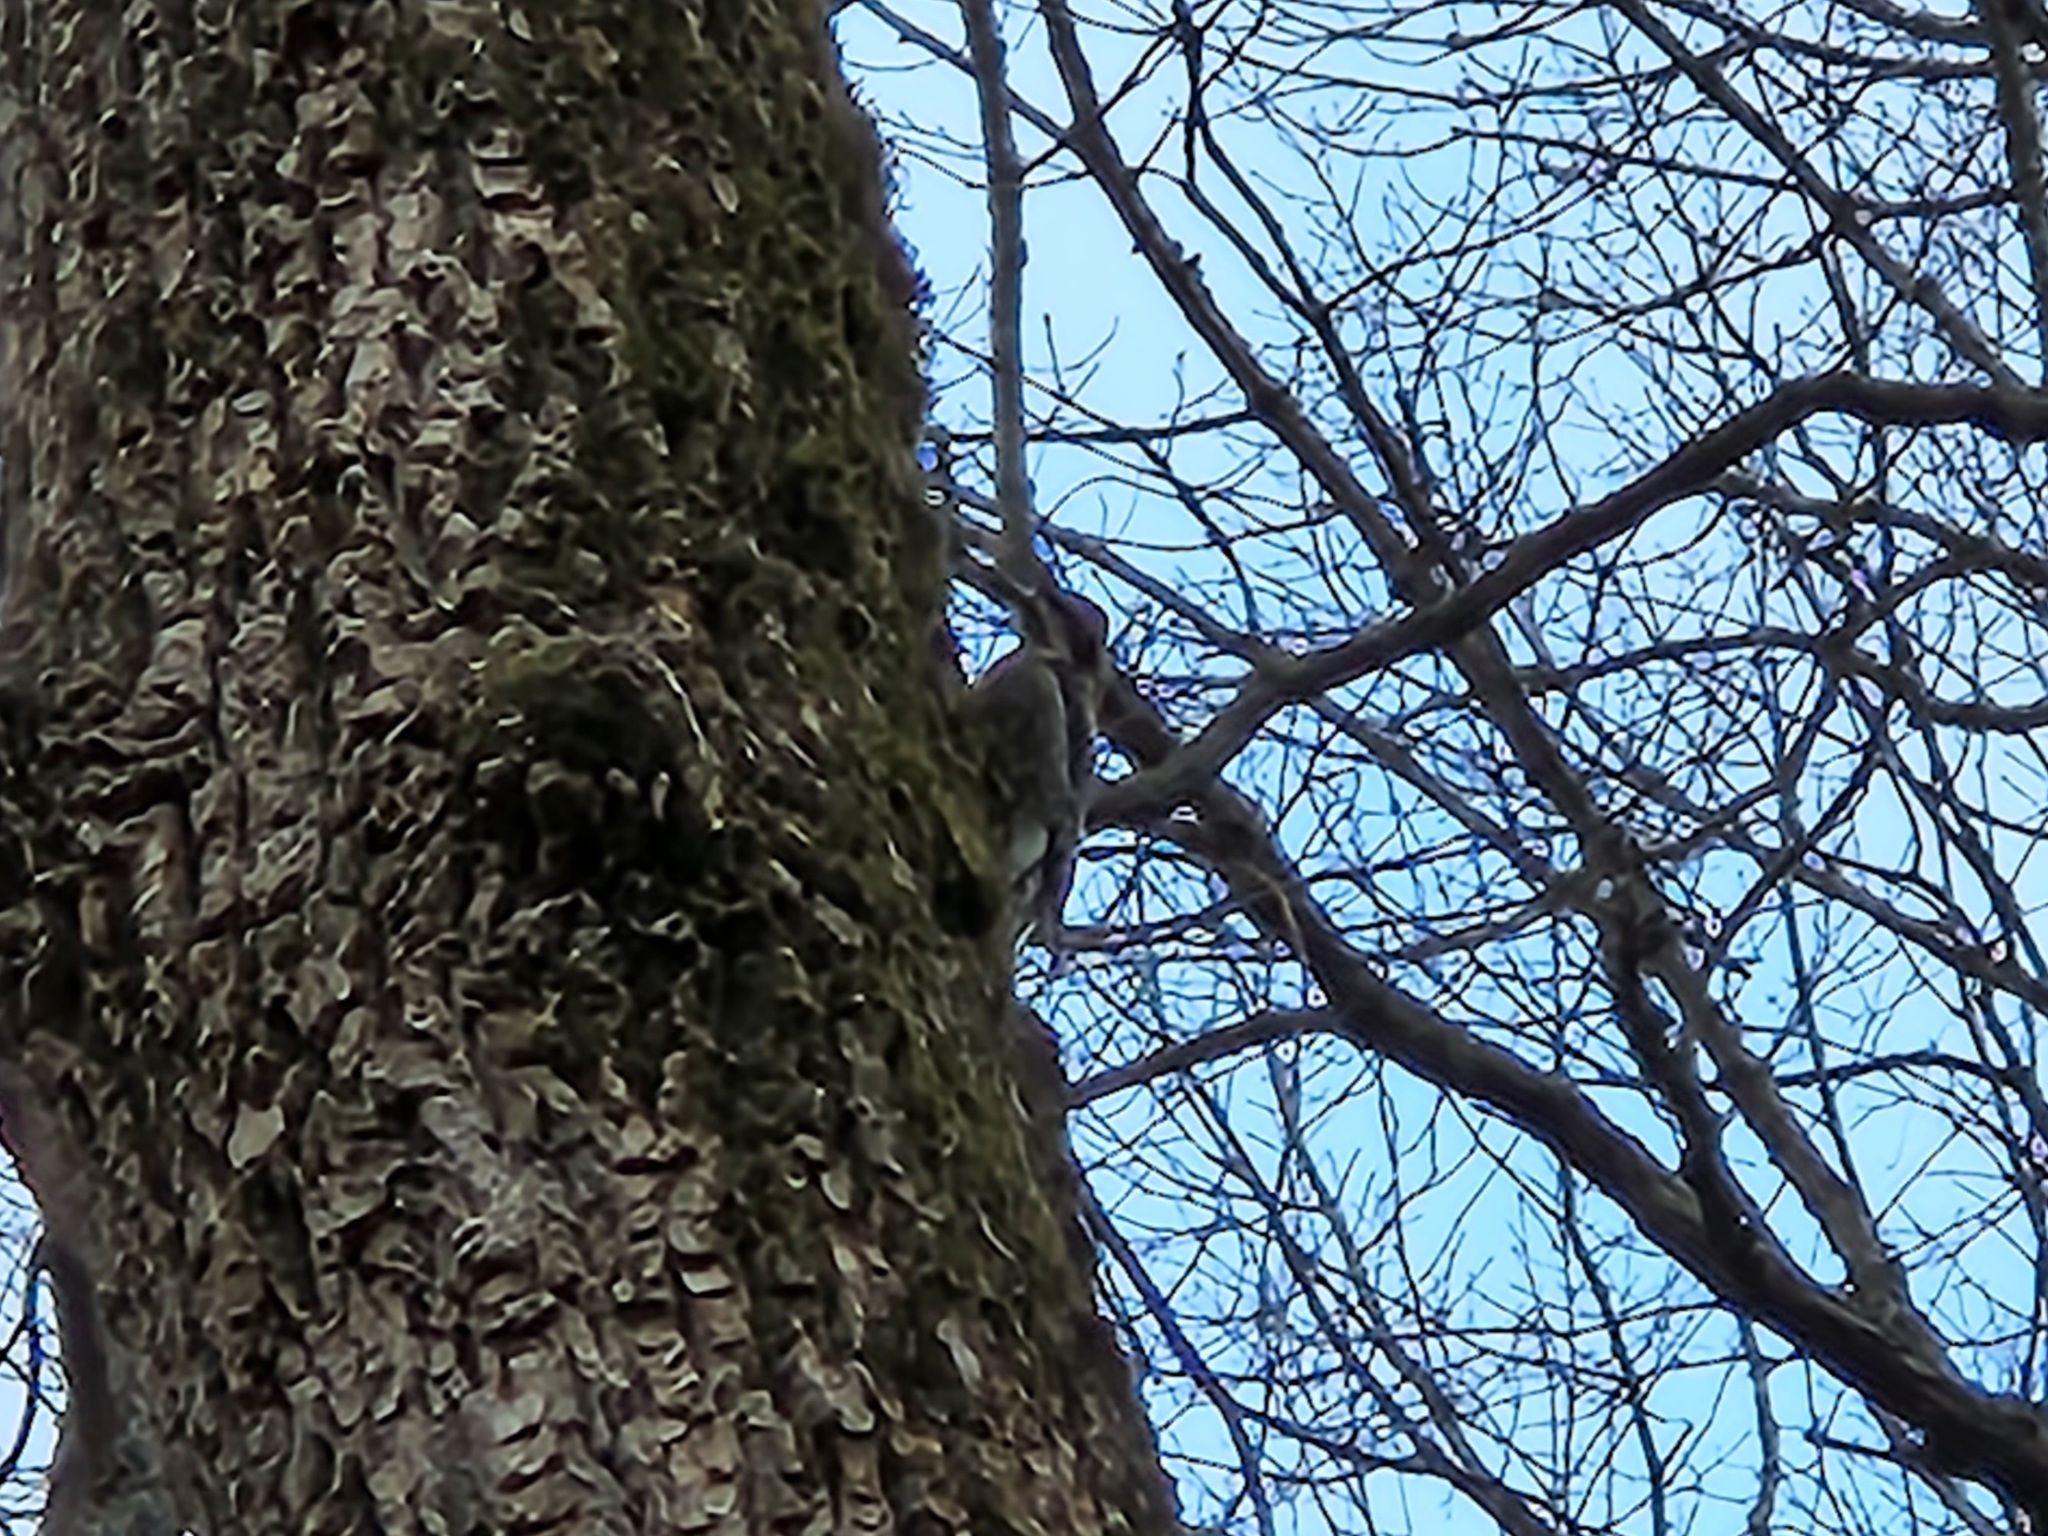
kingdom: Animalia
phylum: Chordata
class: Aves
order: Piciformes
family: Picidae
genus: Sphyrapicus
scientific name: Sphyrapicus varius
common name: Yellow-bellied sapsucker
